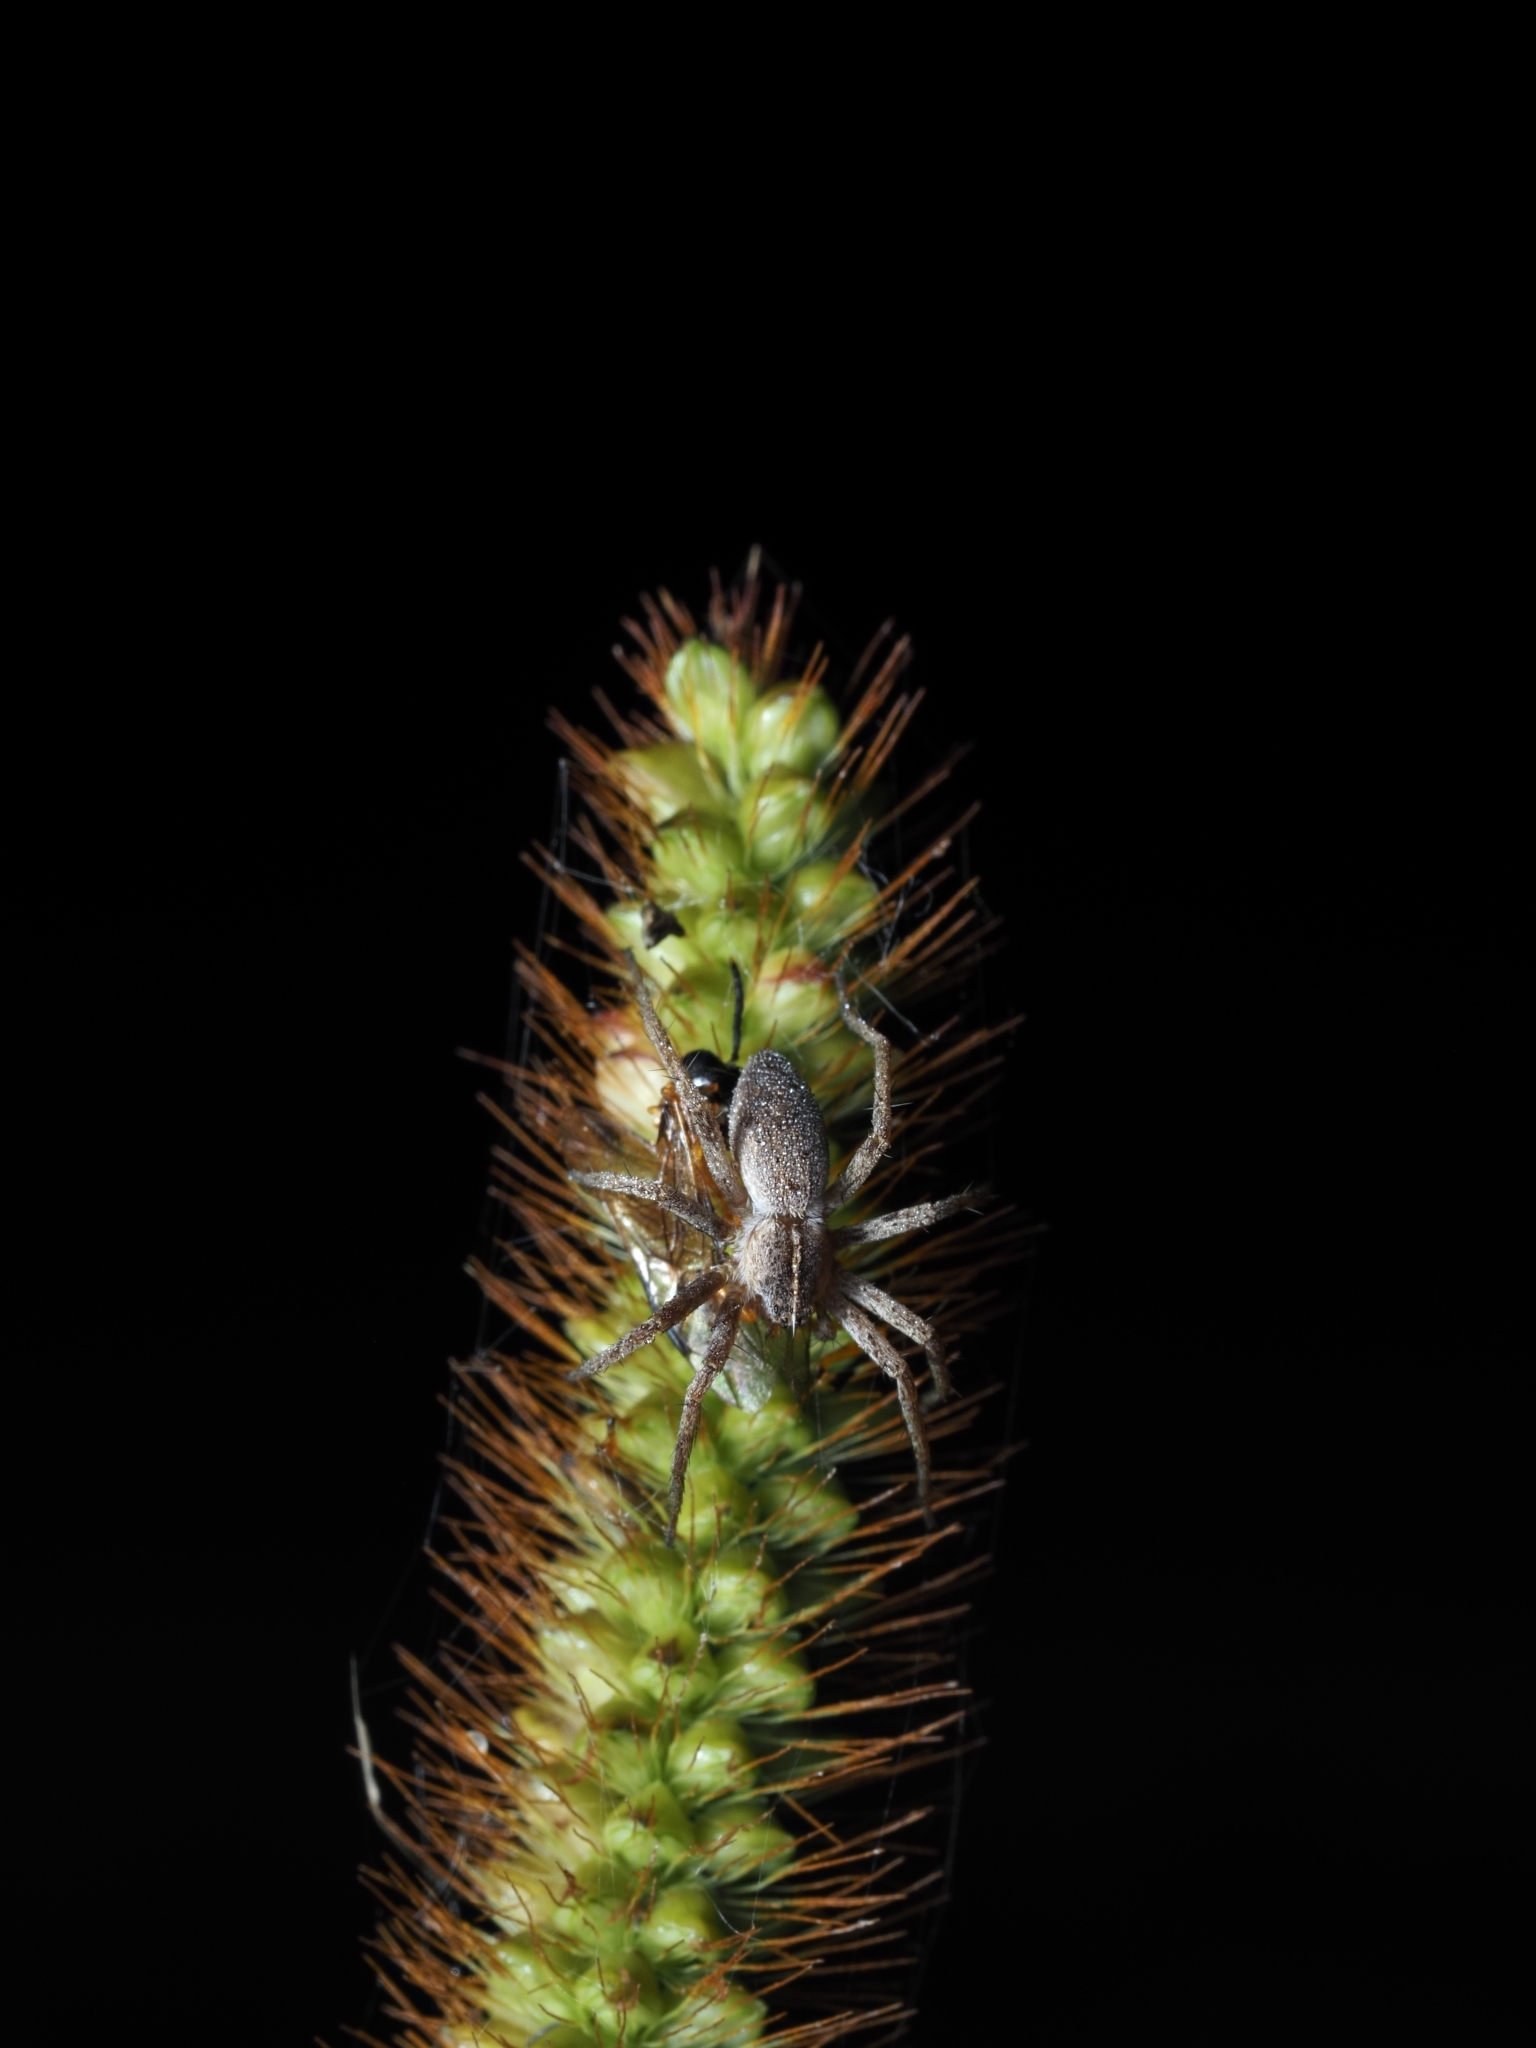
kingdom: Animalia
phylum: Arthropoda
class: Arachnida
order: Araneae
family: Pisauridae
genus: Pisaura
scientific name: Pisaura mirabilis
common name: Tent spider
